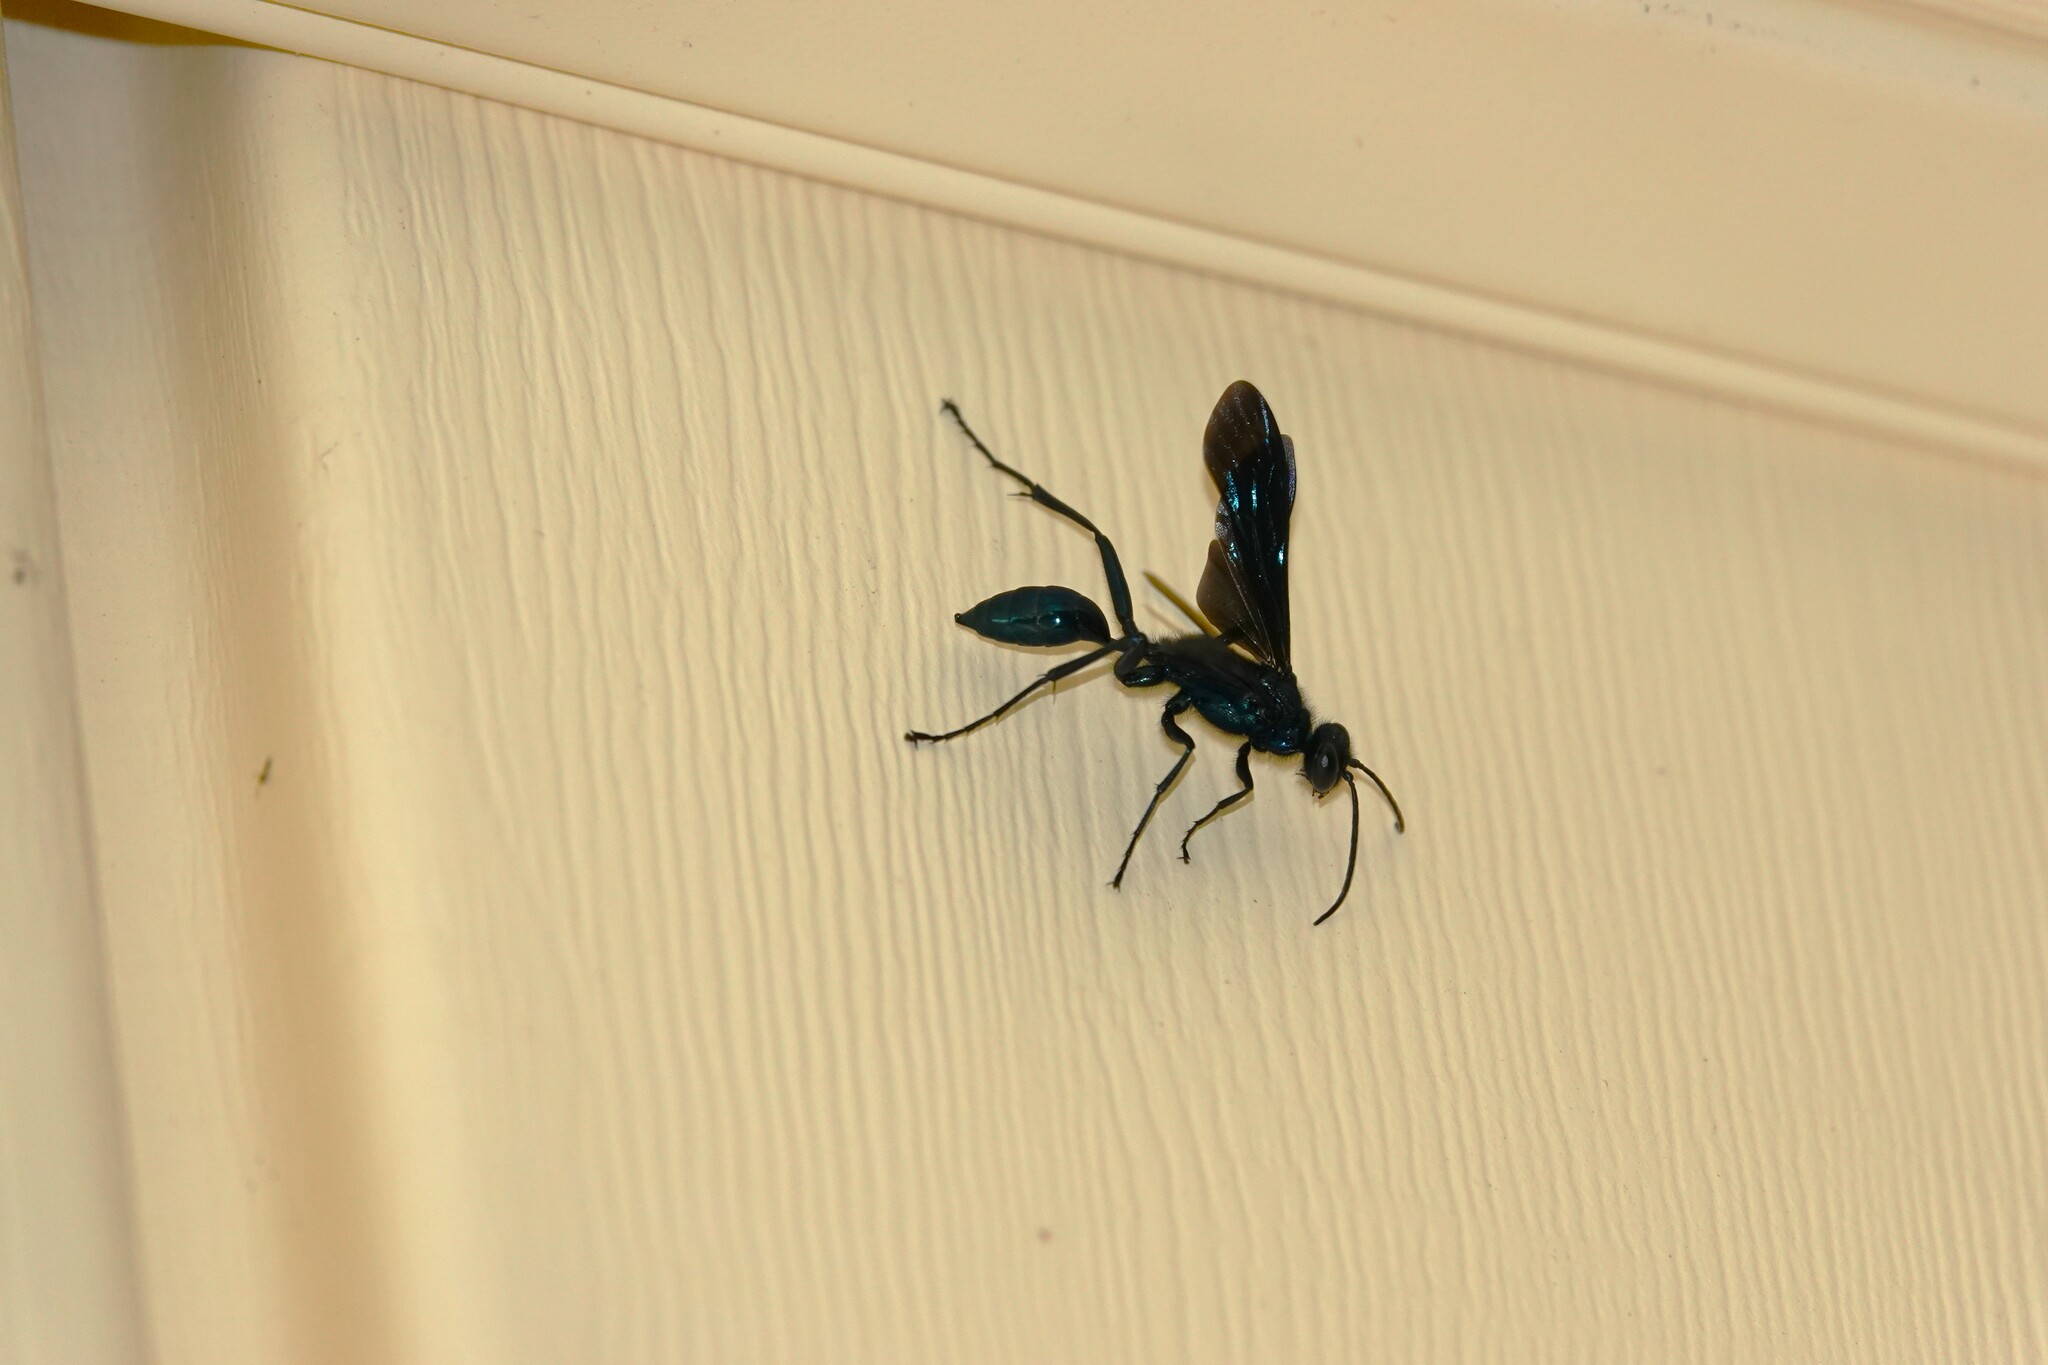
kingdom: Animalia
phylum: Arthropoda
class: Insecta
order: Hymenoptera
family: Sphecidae
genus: Chalybion
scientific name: Chalybion californicum
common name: Mud dauber
